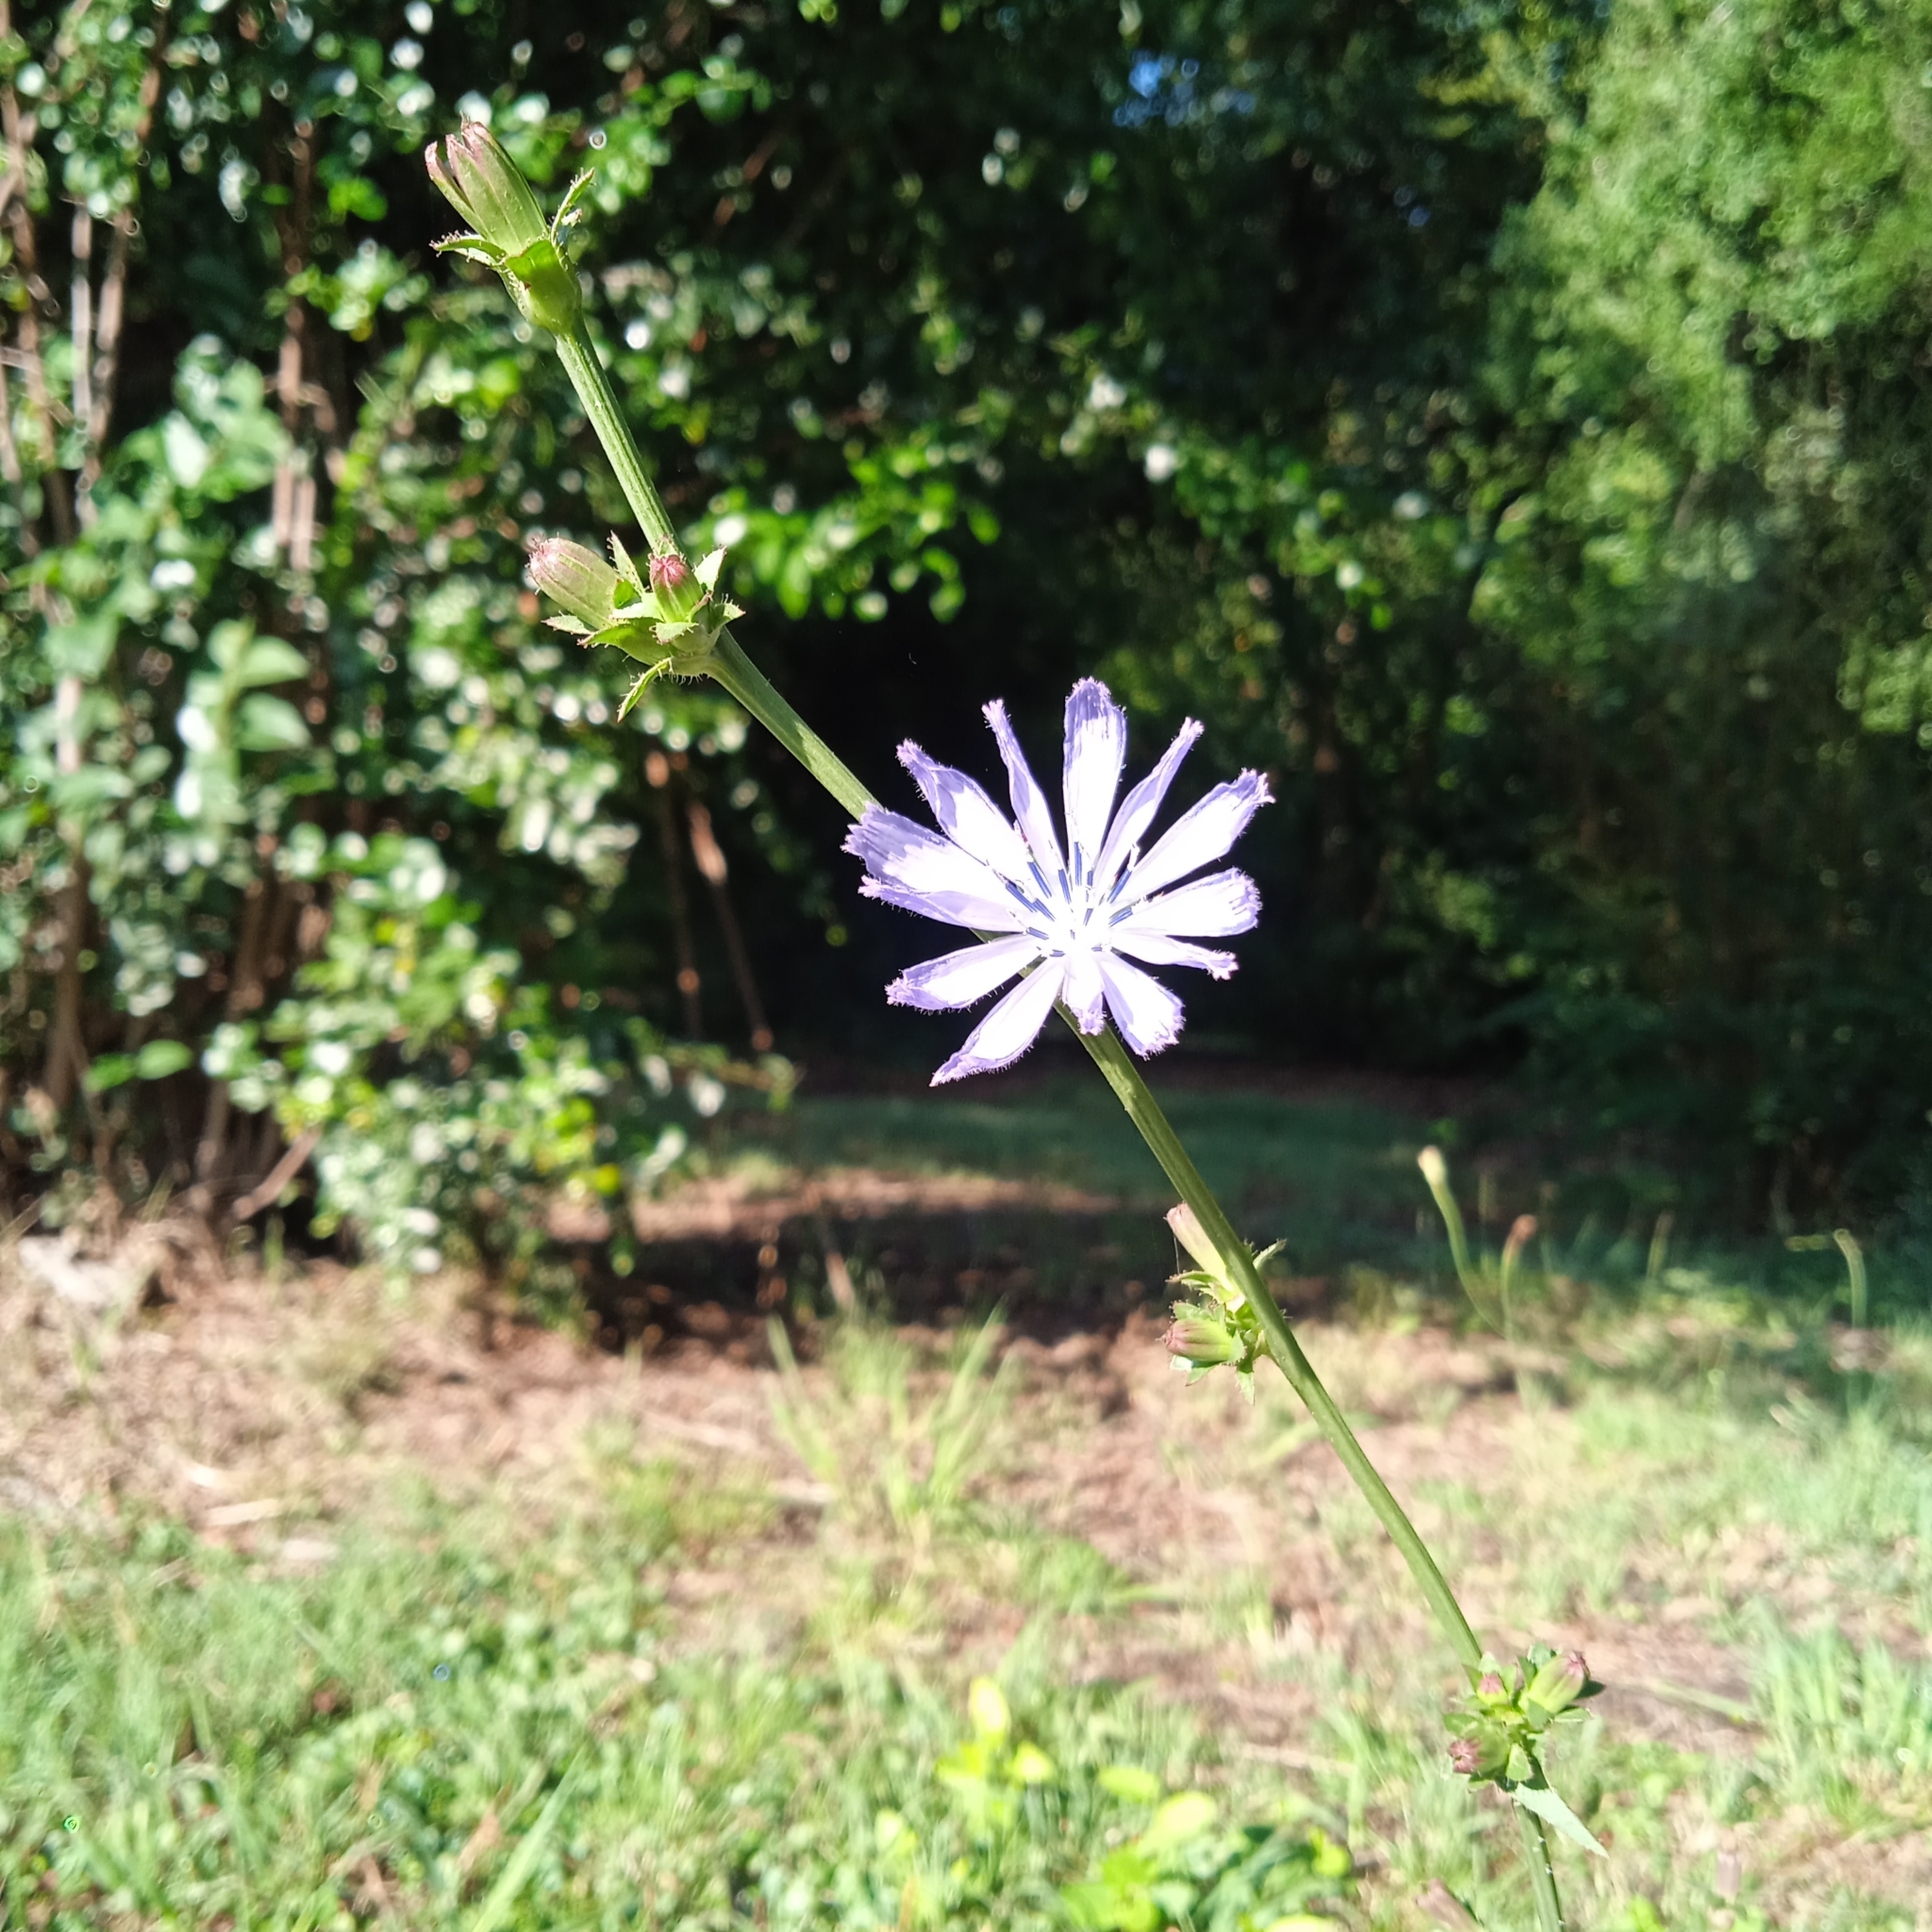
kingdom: Plantae
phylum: Tracheophyta
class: Magnoliopsida
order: Asterales
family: Asteraceae
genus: Cichorium
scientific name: Cichorium intybus
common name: Chicory
